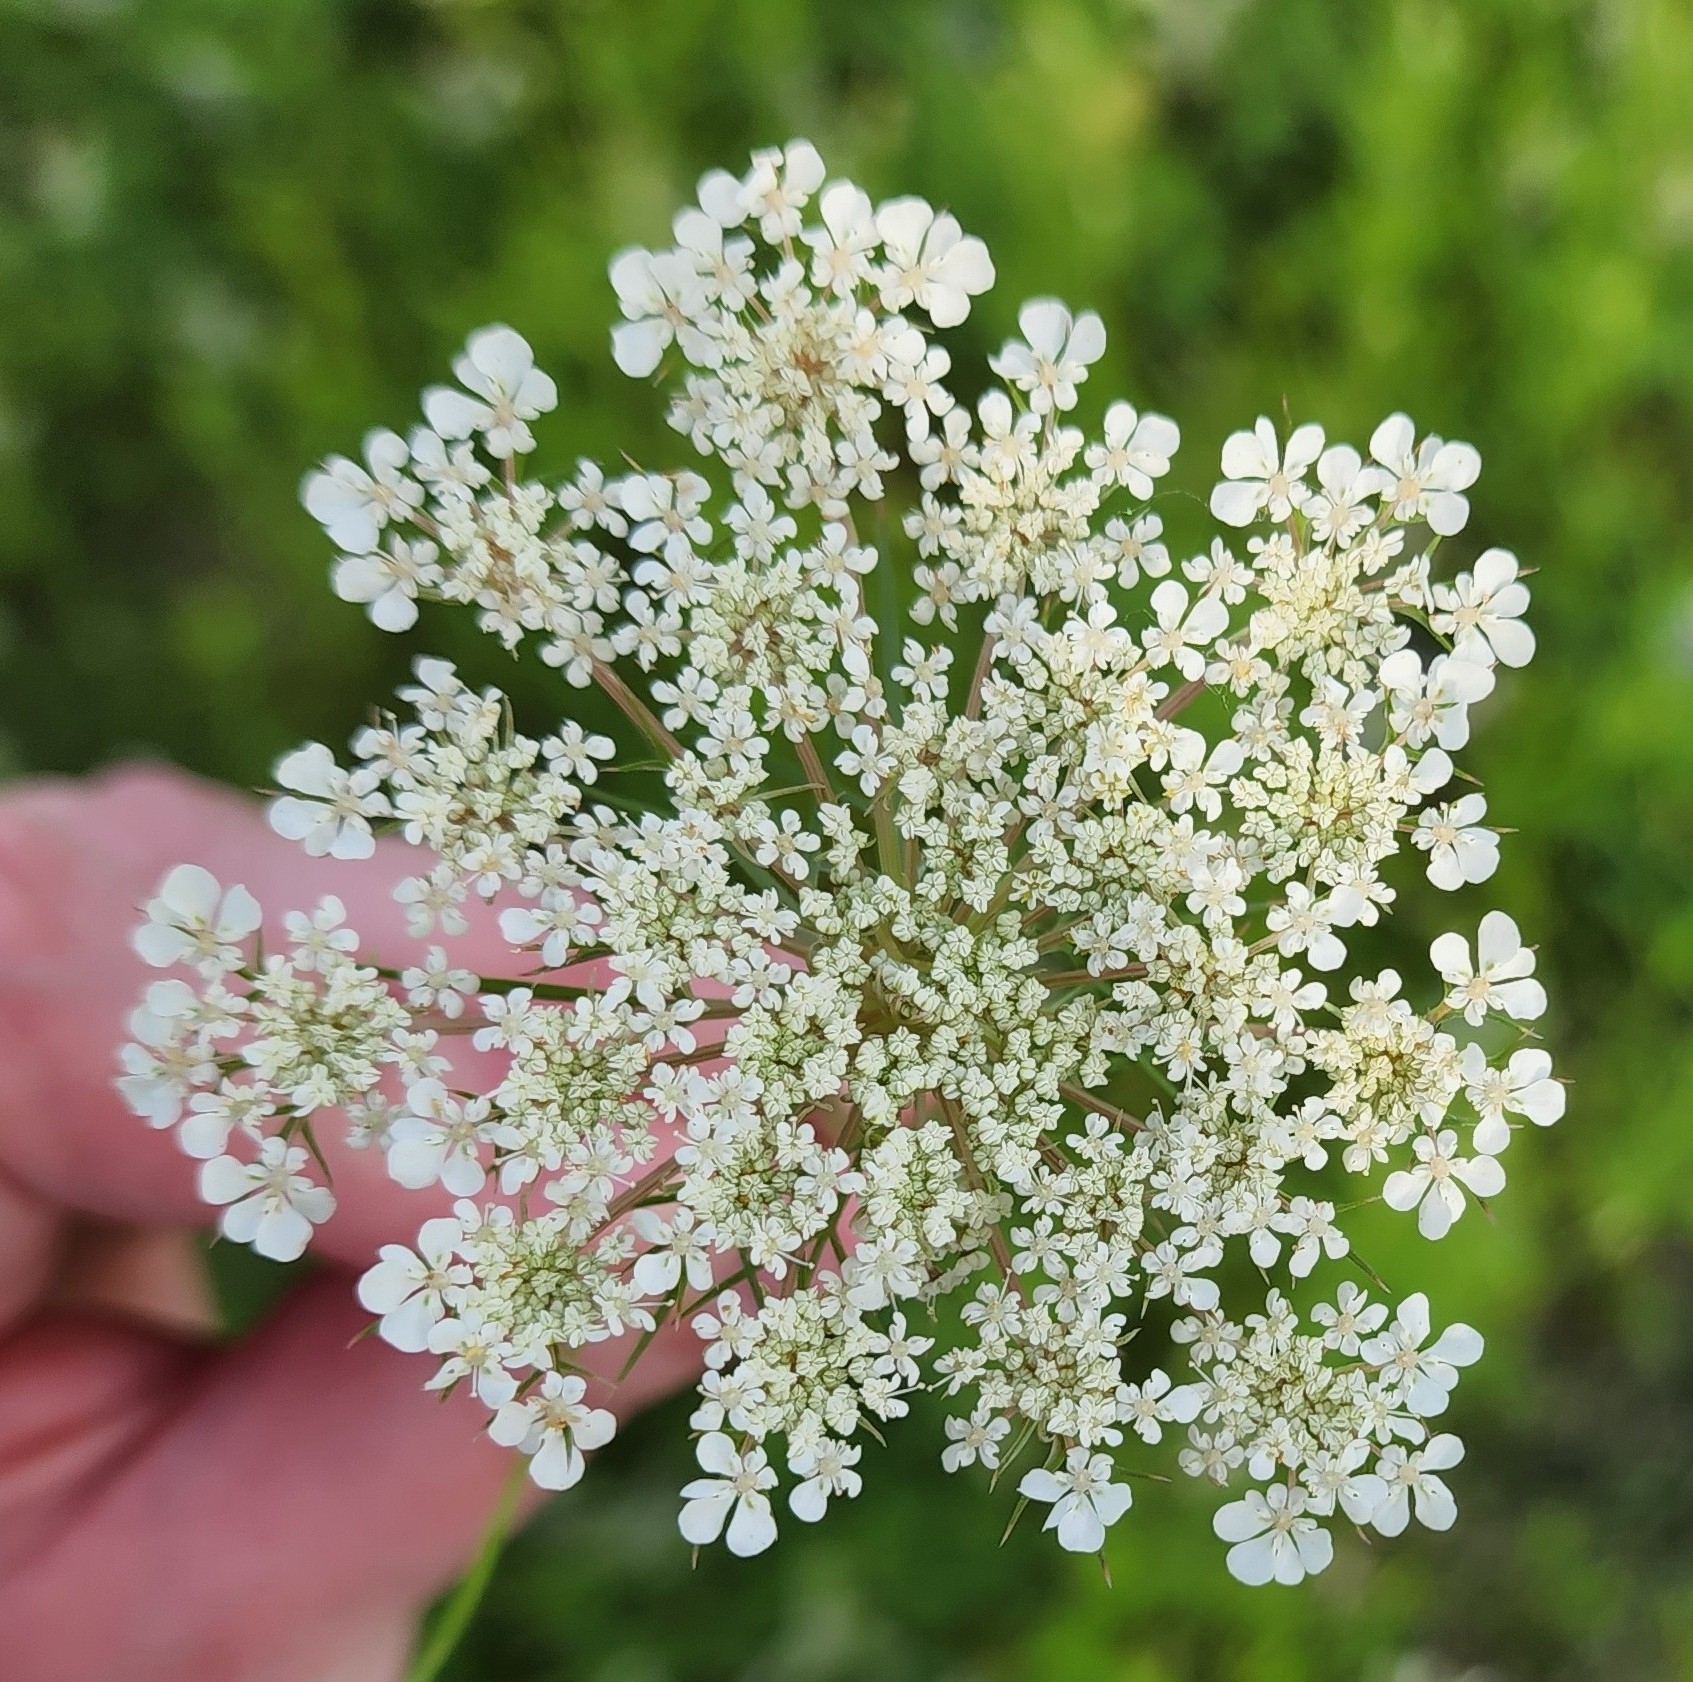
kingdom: Plantae
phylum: Tracheophyta
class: Magnoliopsida
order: Apiales
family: Apiaceae
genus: Daucus
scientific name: Daucus carota
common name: Wild carrot
